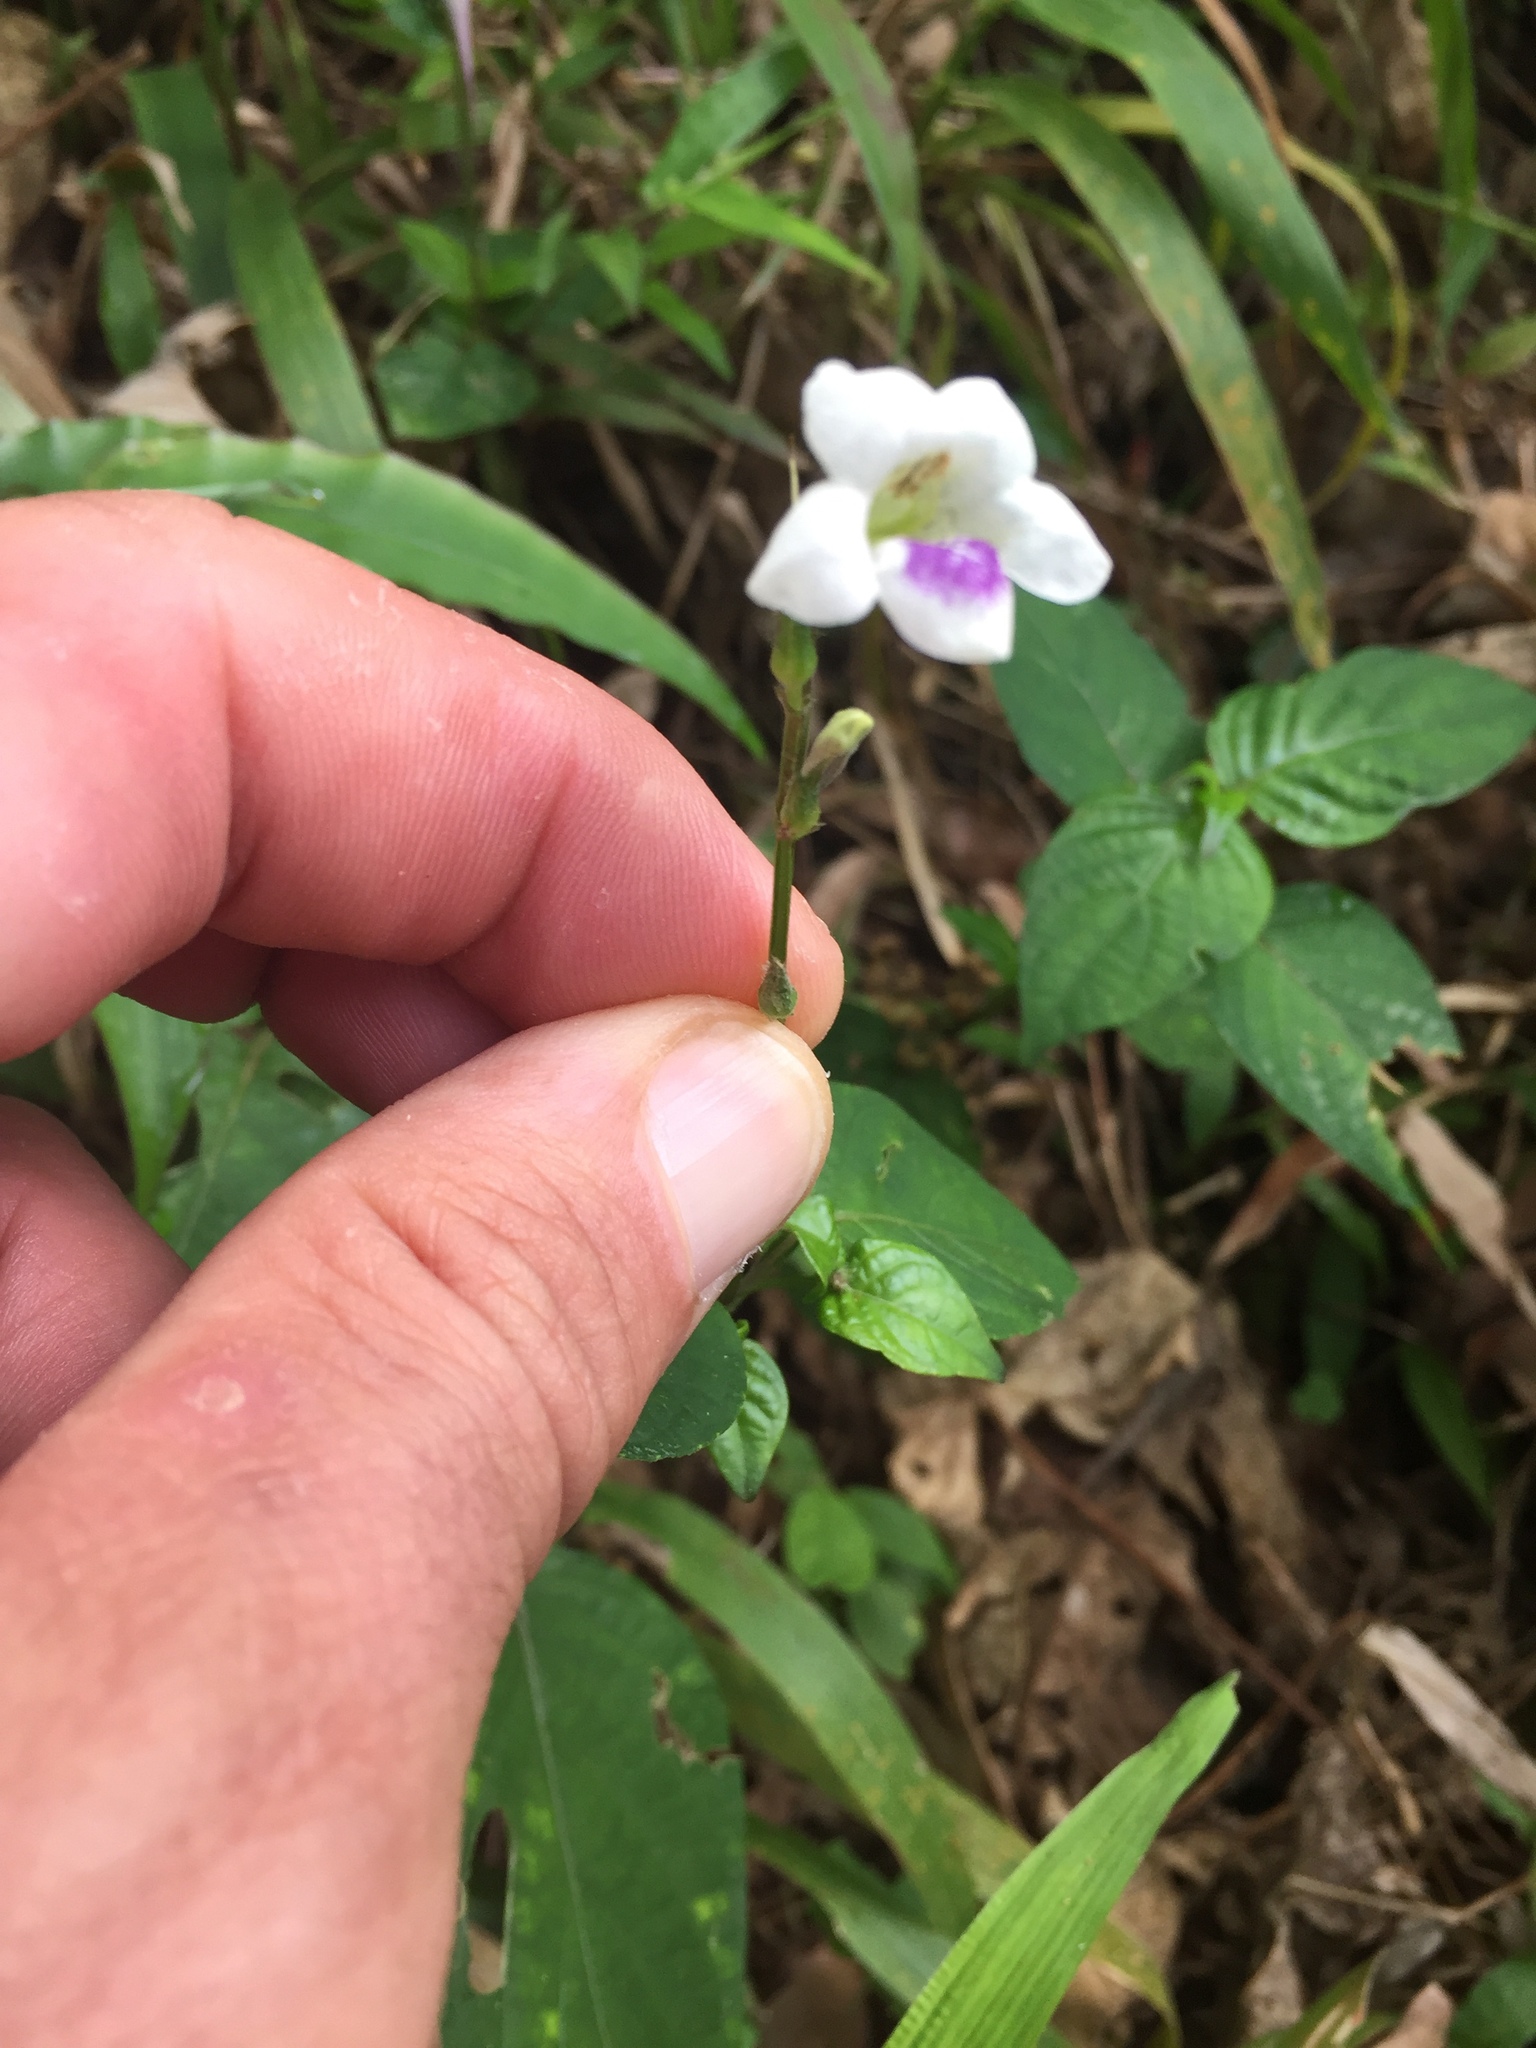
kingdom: Plantae
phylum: Tracheophyta
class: Magnoliopsida
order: Lamiales
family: Acanthaceae
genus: Asystasia
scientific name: Asystasia gangetica
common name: Chinese violet
